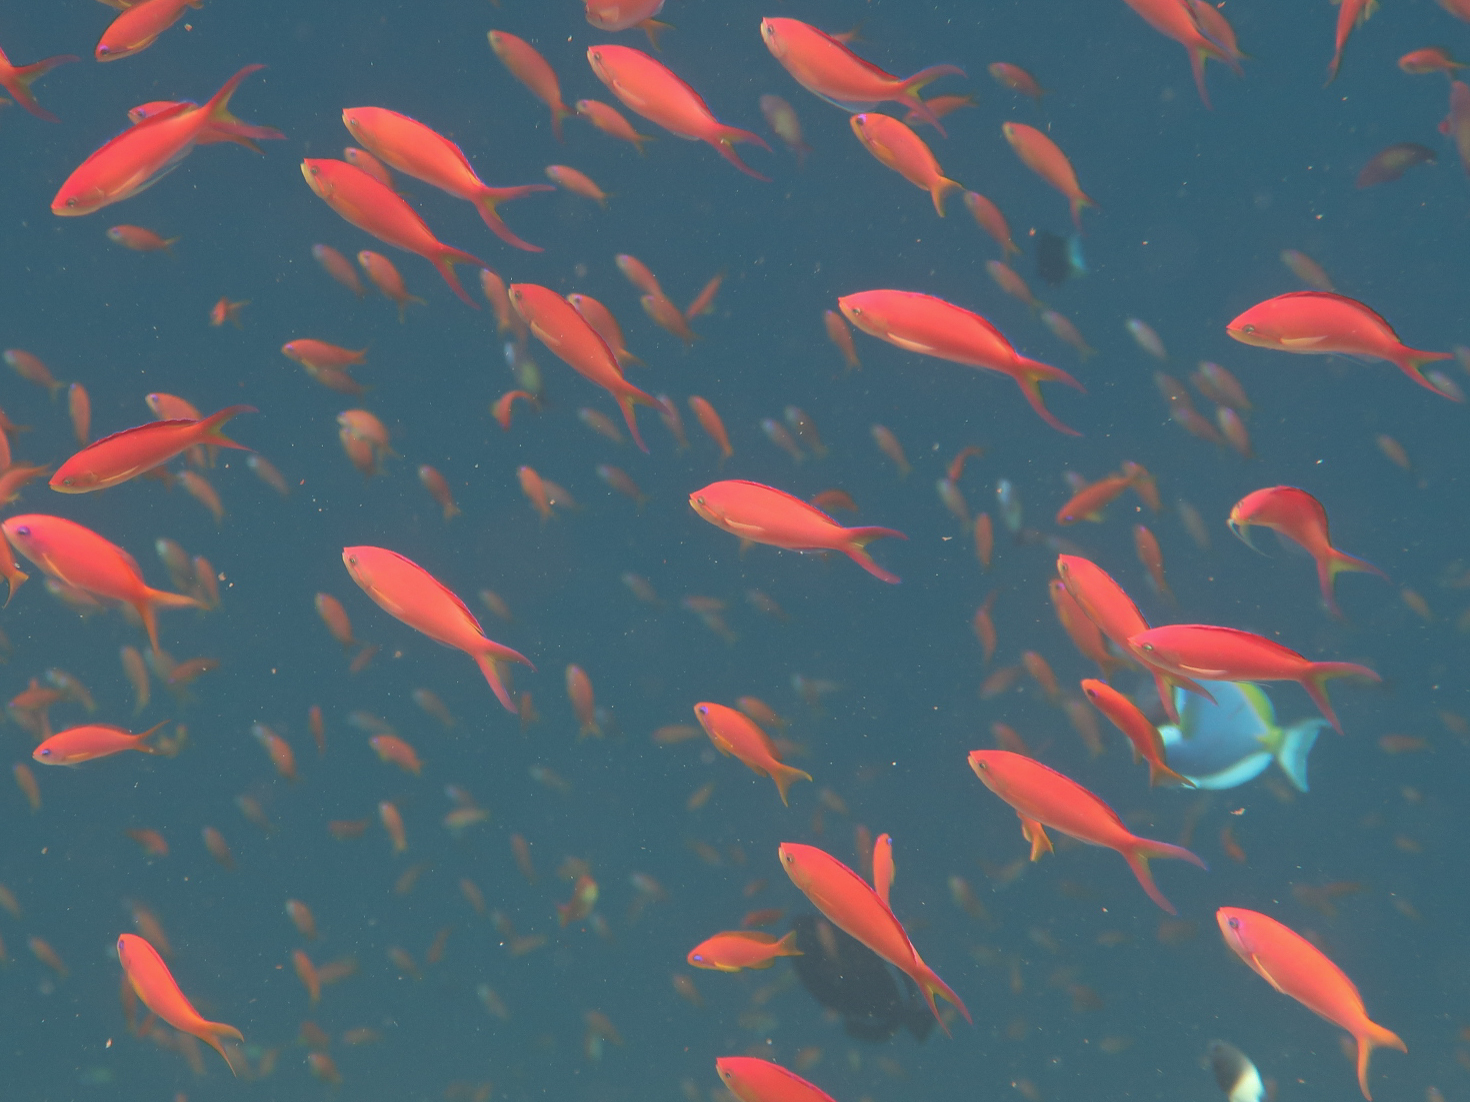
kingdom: Animalia
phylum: Chordata
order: Perciformes
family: Serranidae
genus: Nemanthias
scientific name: Nemanthias
